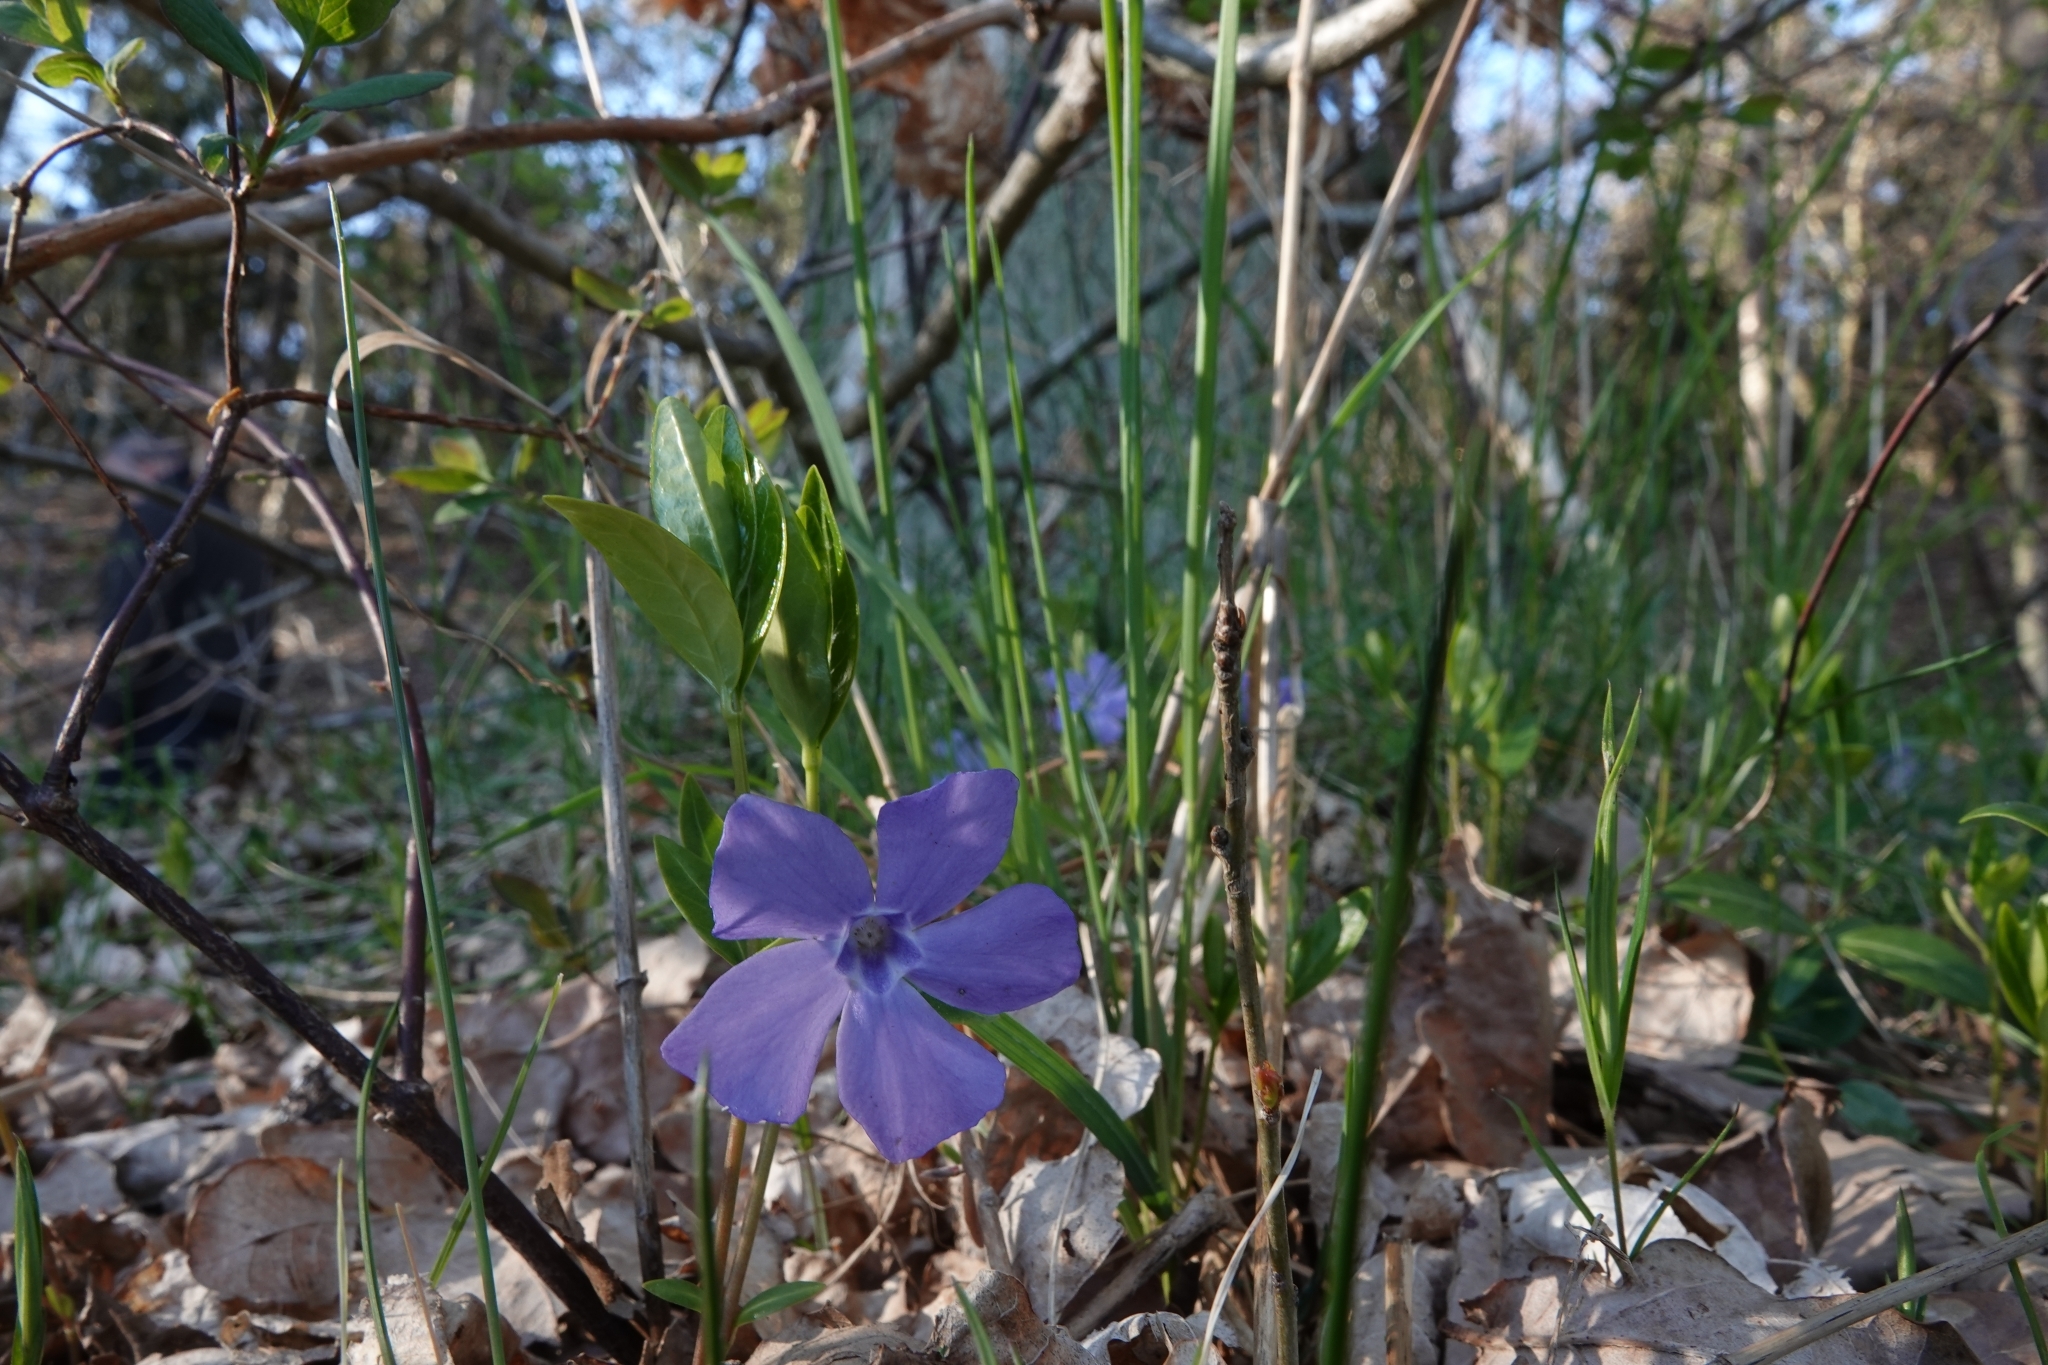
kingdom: Plantae
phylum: Tracheophyta
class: Magnoliopsida
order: Gentianales
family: Apocynaceae
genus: Vinca
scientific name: Vinca minor
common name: Lesser periwinkle
